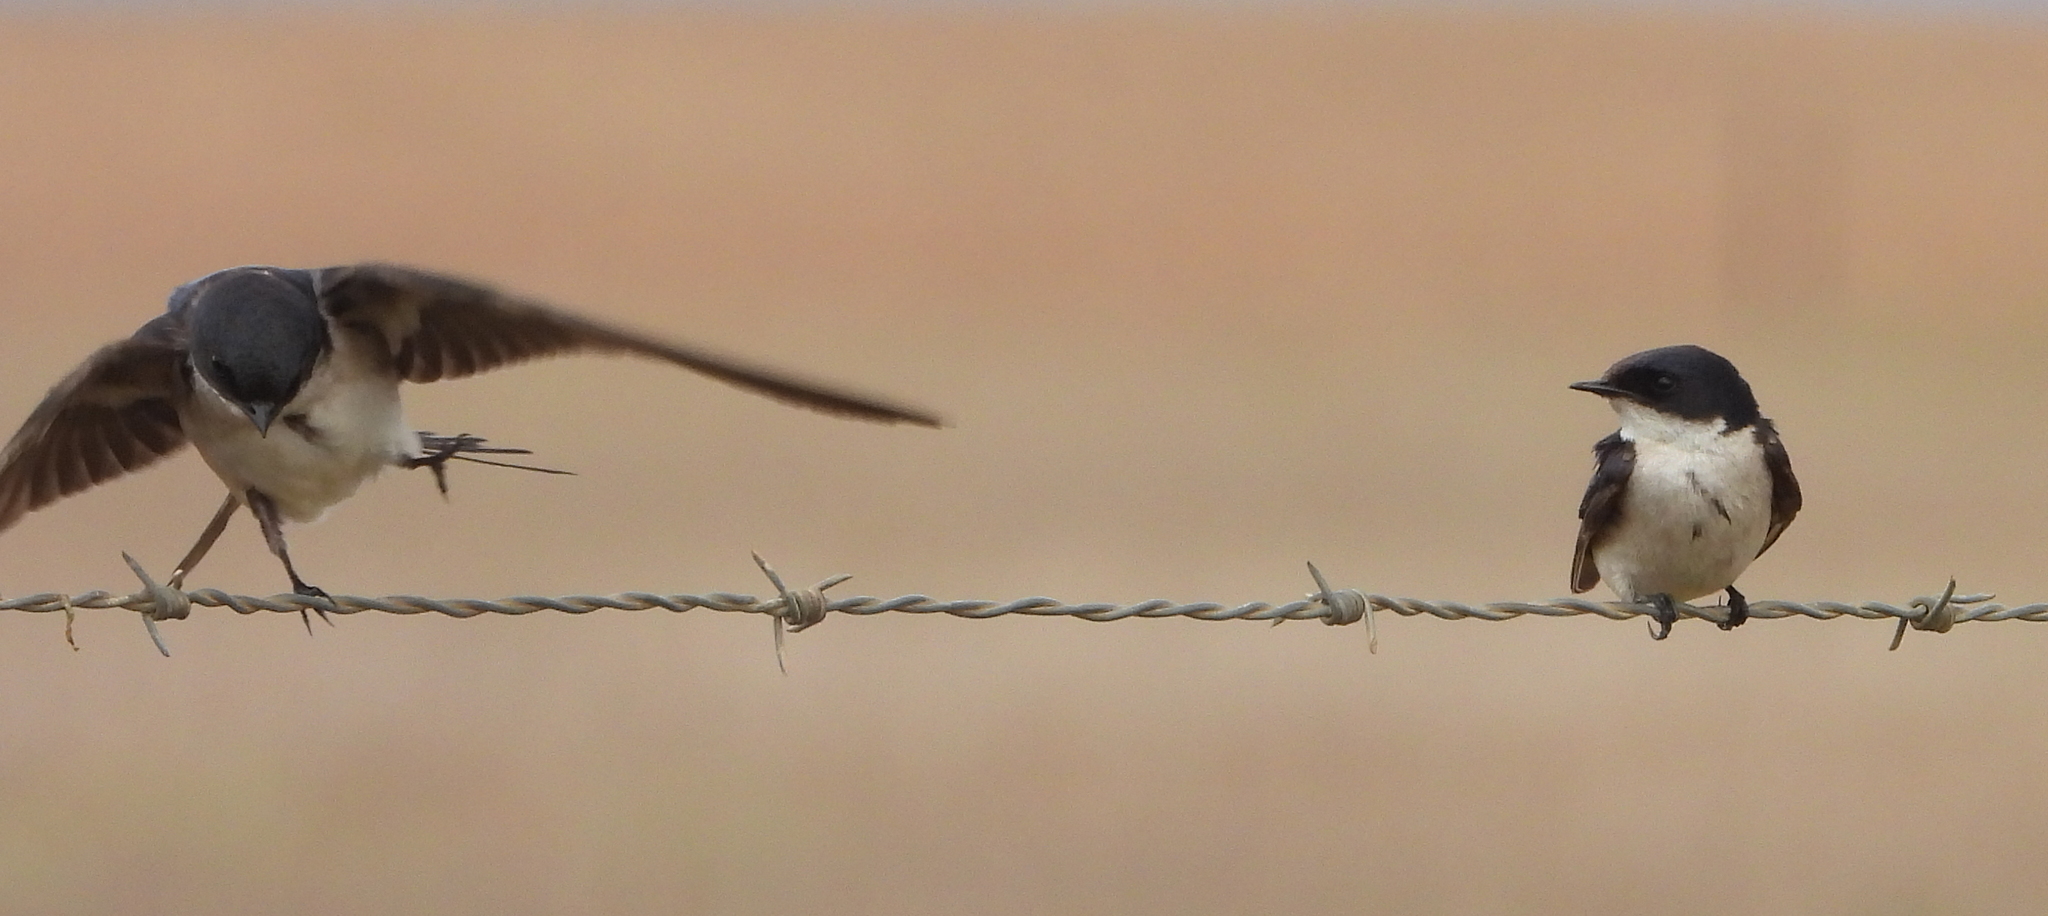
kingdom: Animalia
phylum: Chordata
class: Aves
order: Passeriformes
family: Hirundinidae
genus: Hirundo
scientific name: Hirundo dimidiata
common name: Pearl-breasted swallow
